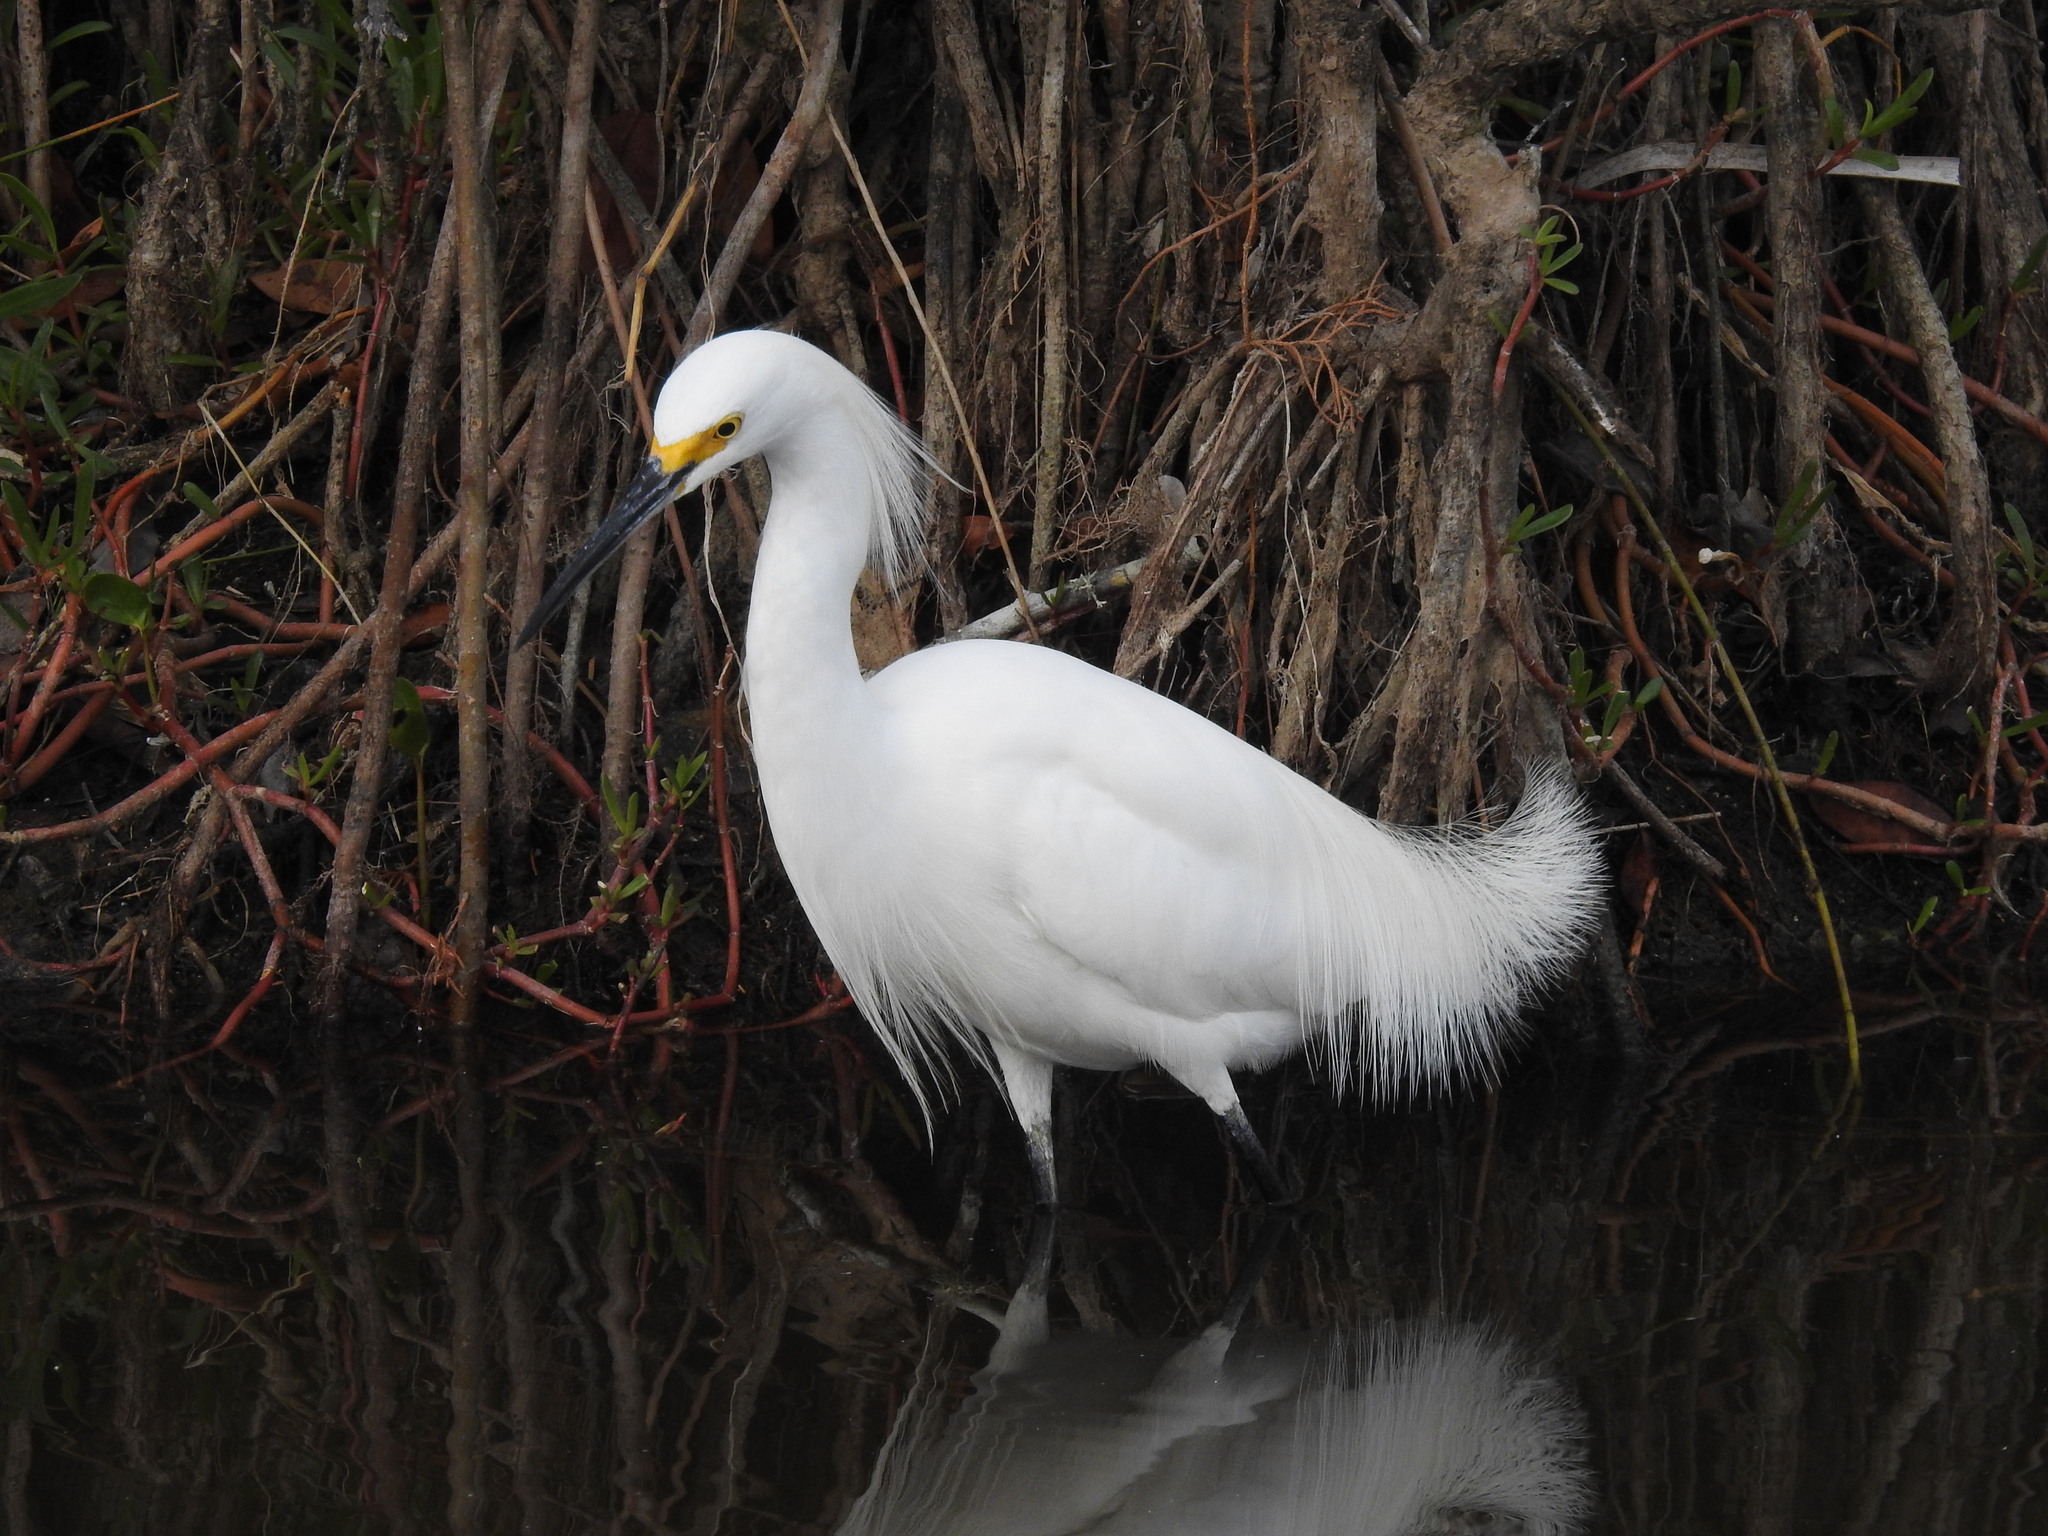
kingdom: Animalia
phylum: Chordata
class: Aves
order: Pelecaniformes
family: Ardeidae
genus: Egretta
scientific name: Egretta thula
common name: Snowy egret
